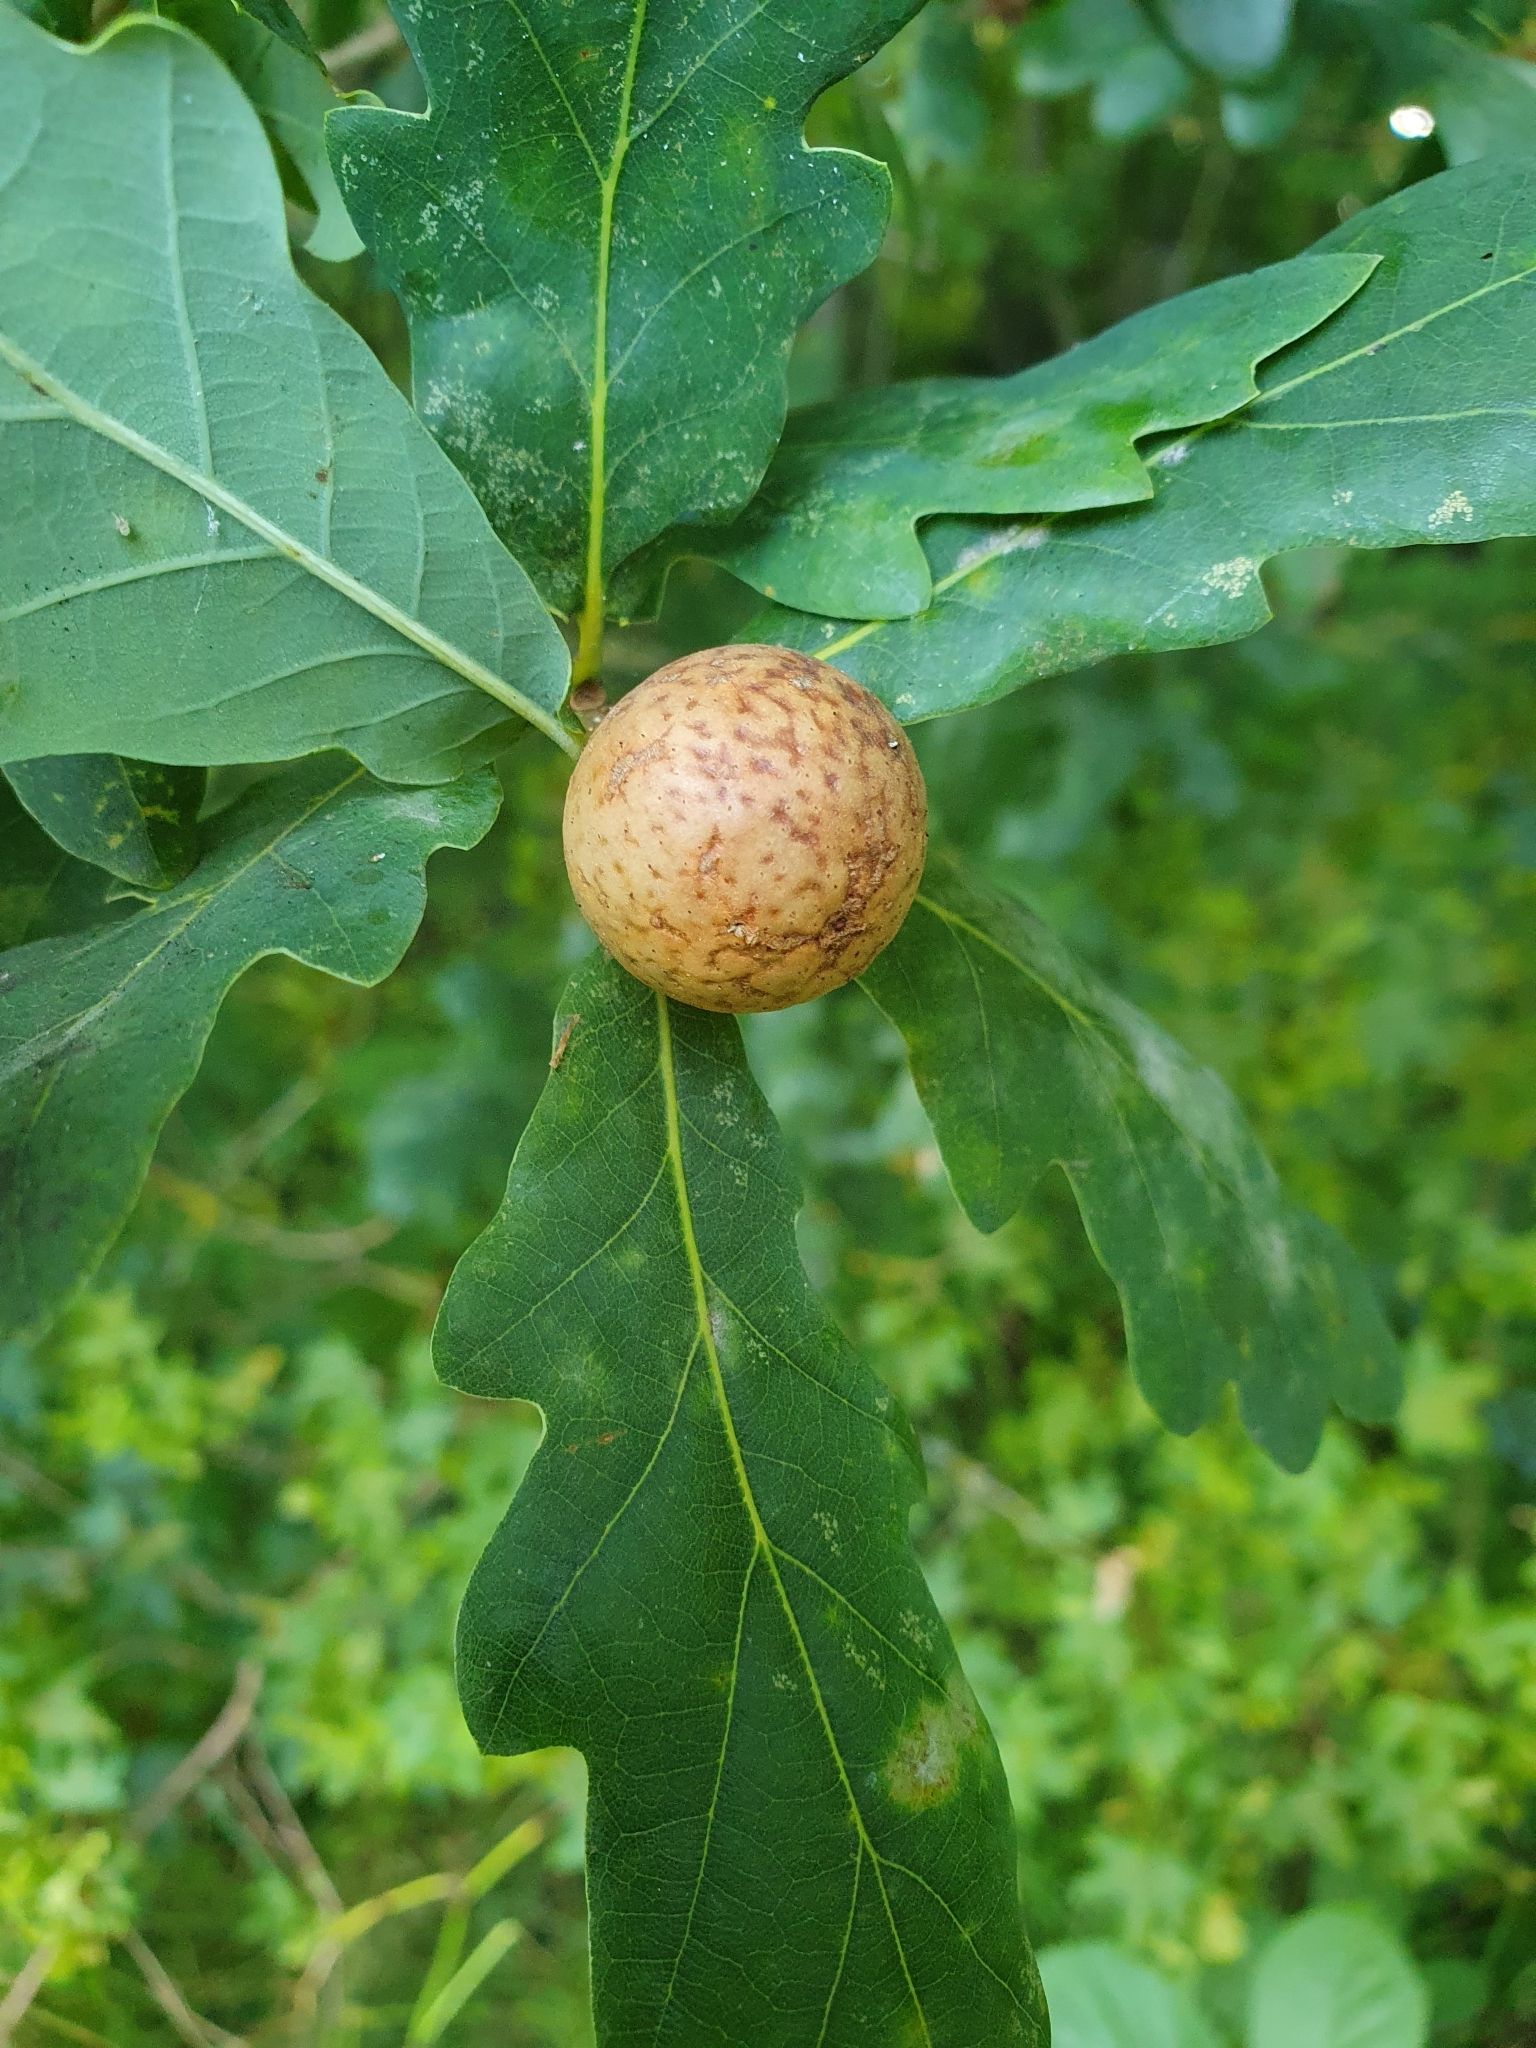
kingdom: Animalia
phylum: Arthropoda
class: Insecta
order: Hymenoptera
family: Cynipidae
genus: Andricus
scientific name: Andricus kollari
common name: Marble gall
